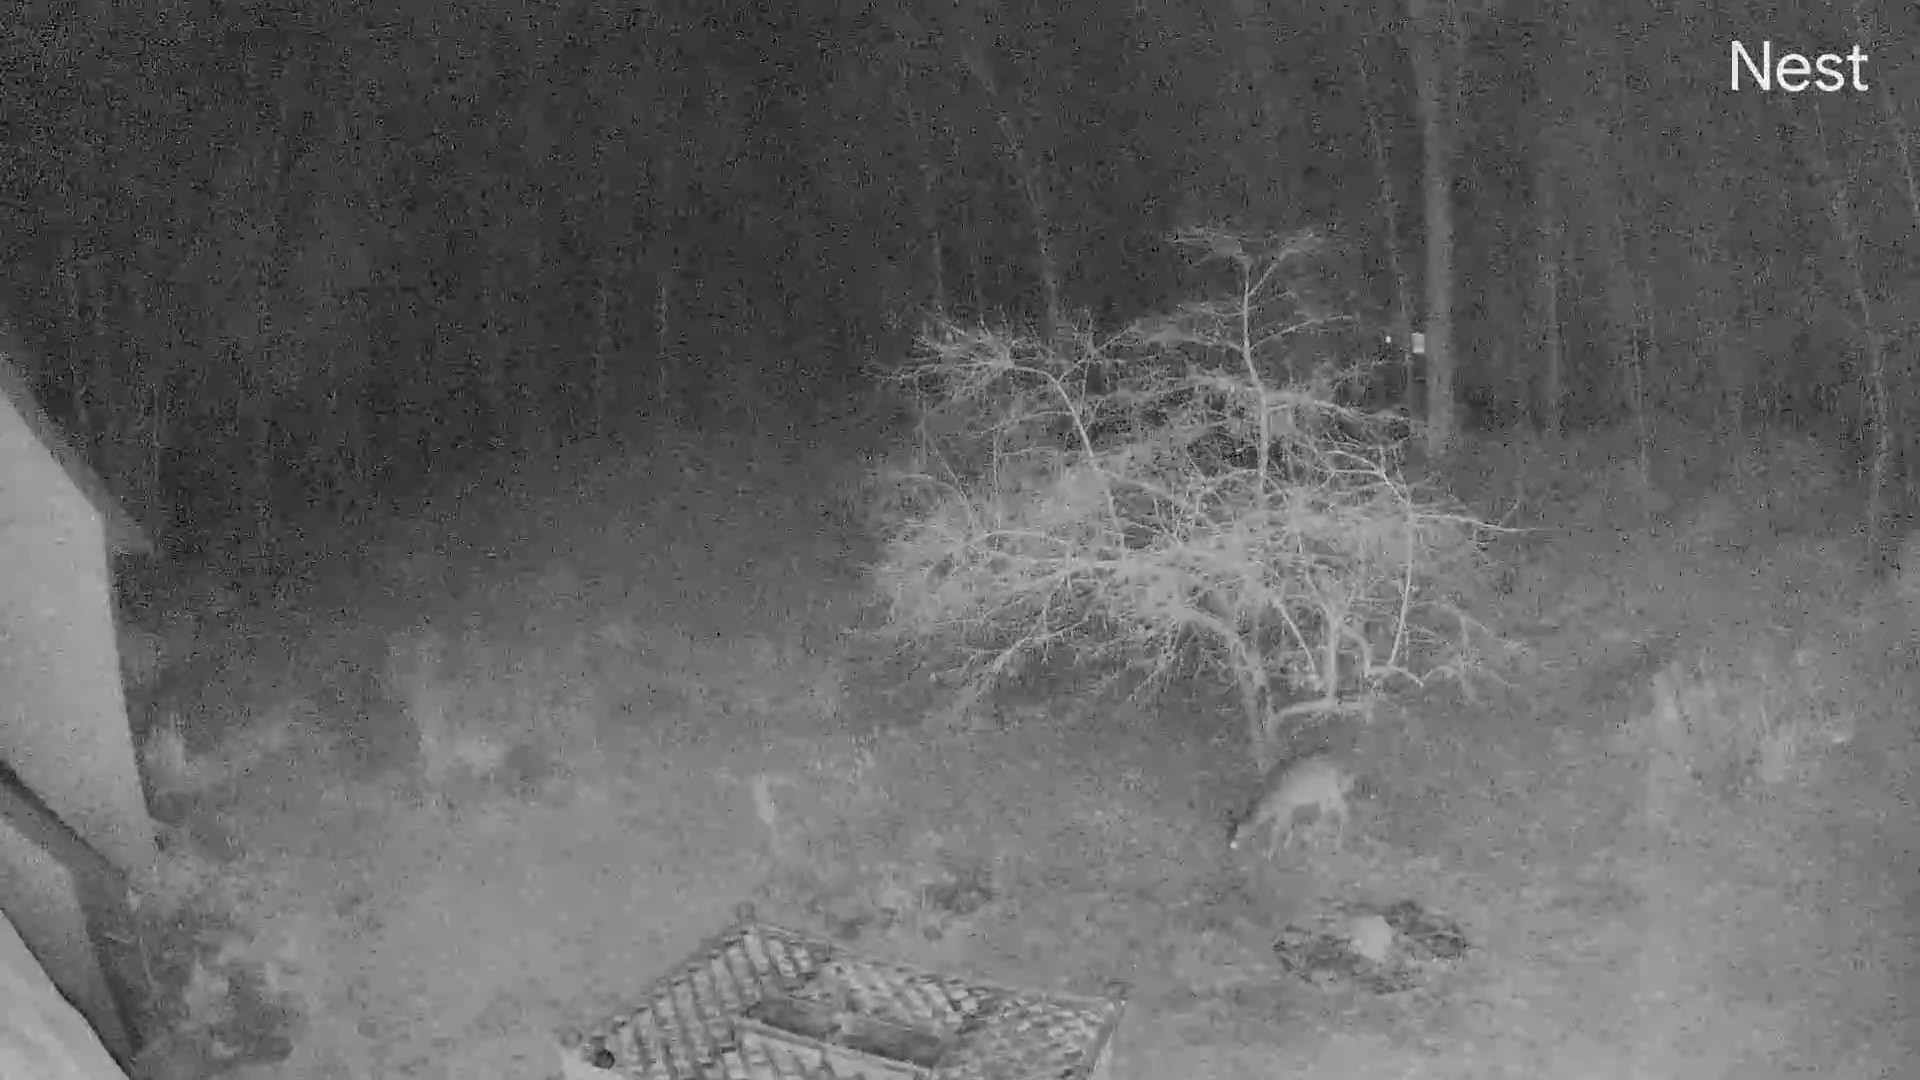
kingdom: Animalia
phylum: Chordata
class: Mammalia
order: Artiodactyla
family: Cervidae
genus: Odocoileus
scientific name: Odocoileus virginianus
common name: White-tailed deer
